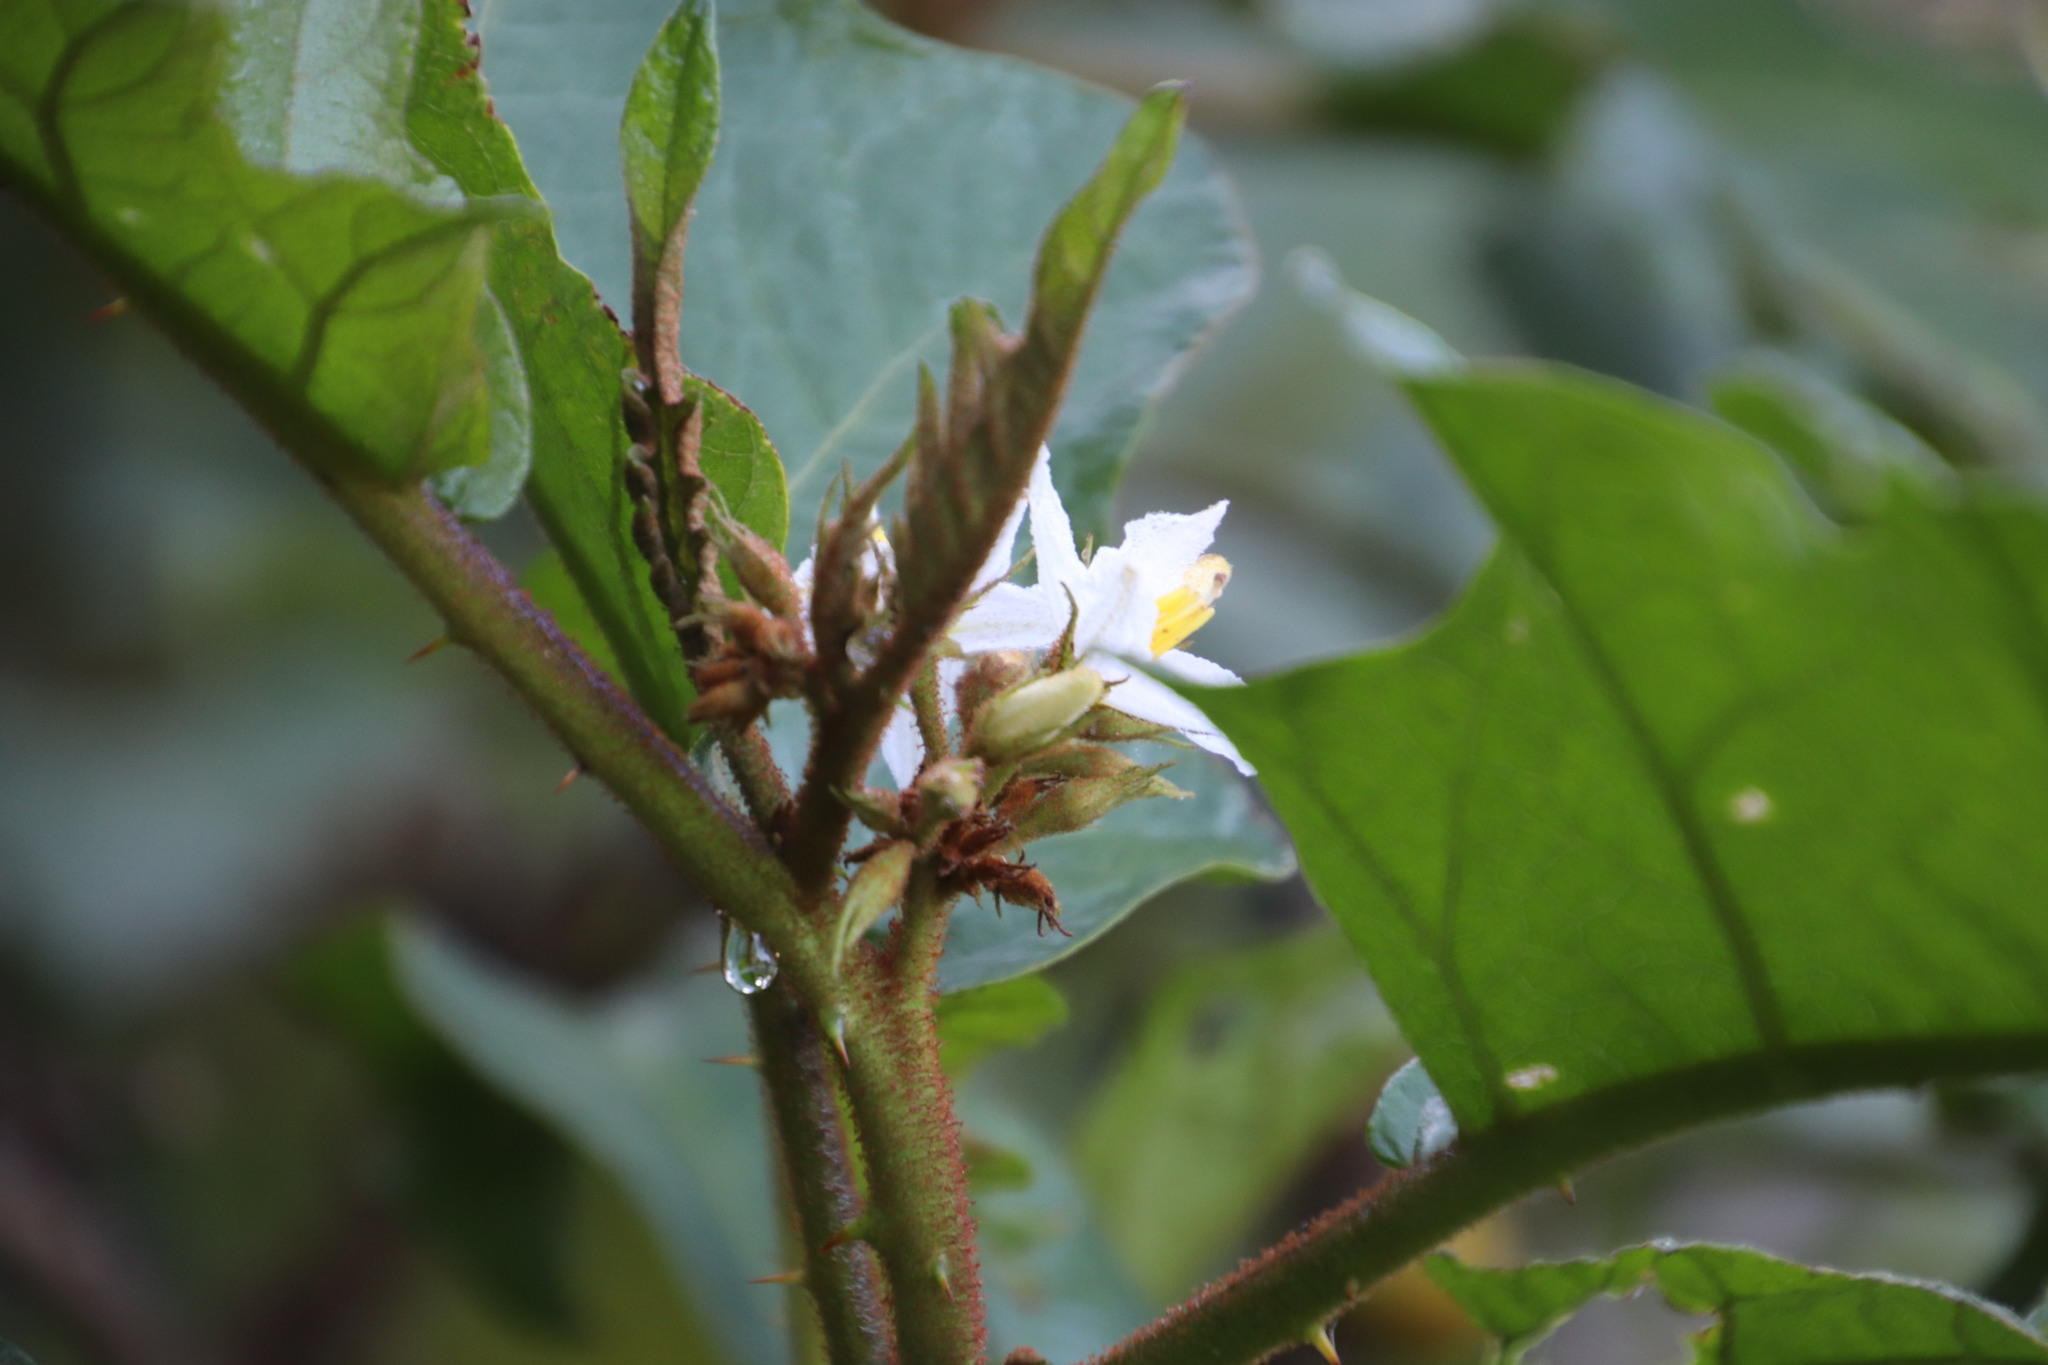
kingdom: Plantae
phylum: Tracheophyta
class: Magnoliopsida
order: Solanales
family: Solanaceae
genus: Solanum
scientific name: Solanum chrysotrichum
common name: Nightshade
